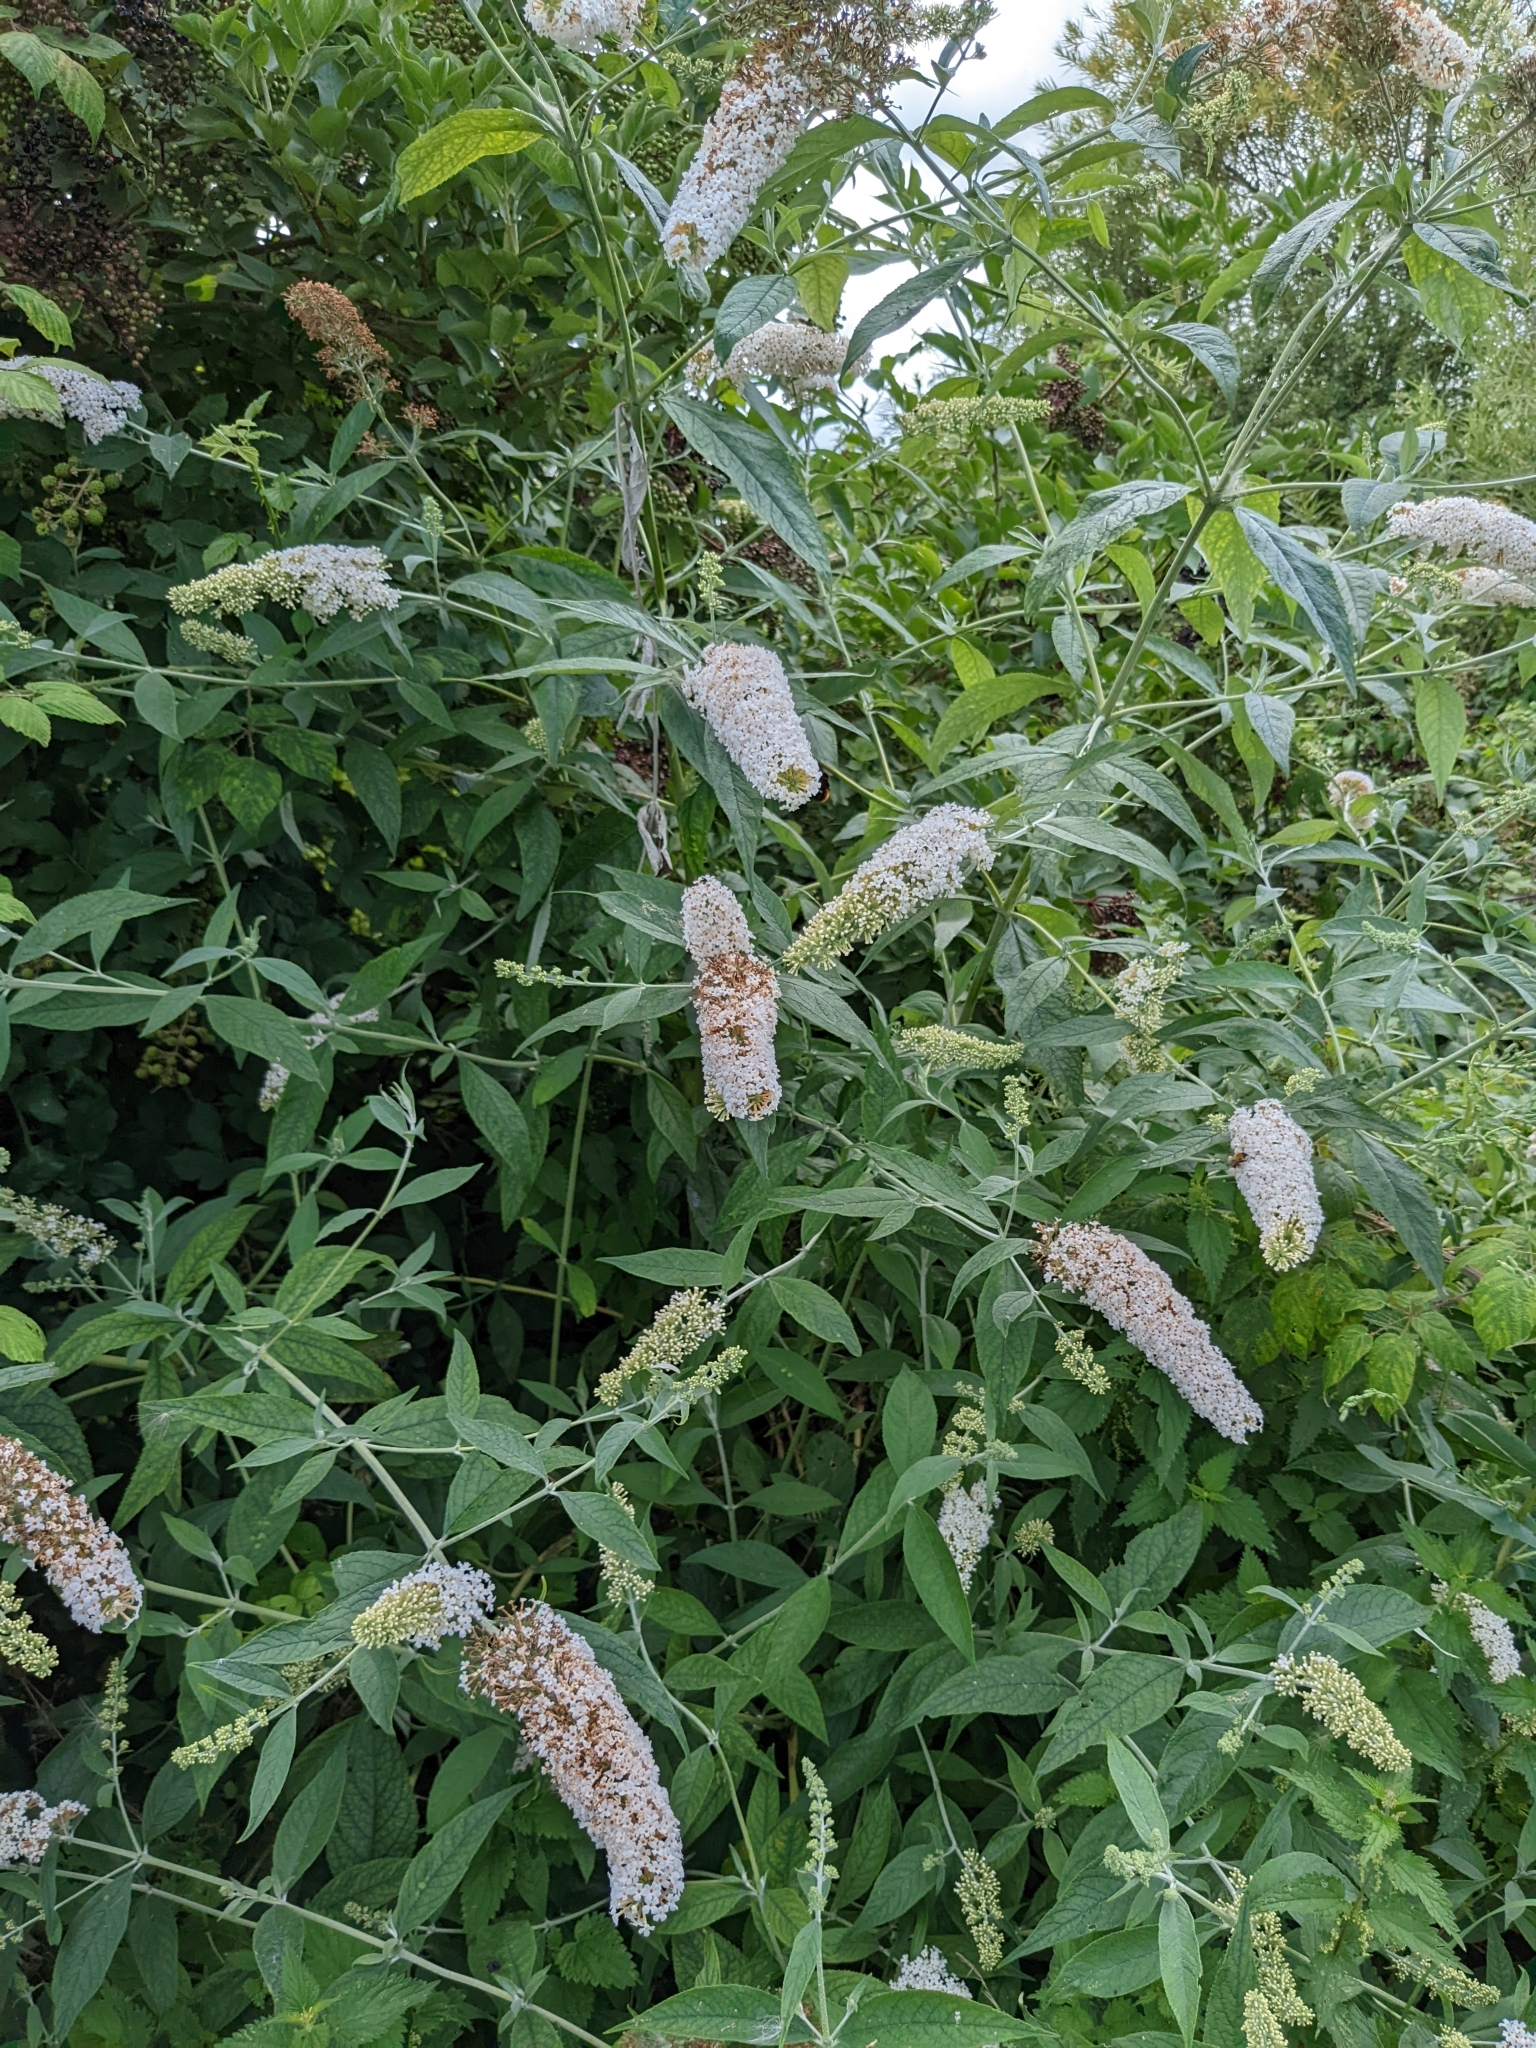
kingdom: Plantae
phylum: Tracheophyta
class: Magnoliopsida
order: Lamiales
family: Scrophulariaceae
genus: Buddleja
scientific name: Buddleja davidii
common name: Butterfly-bush
